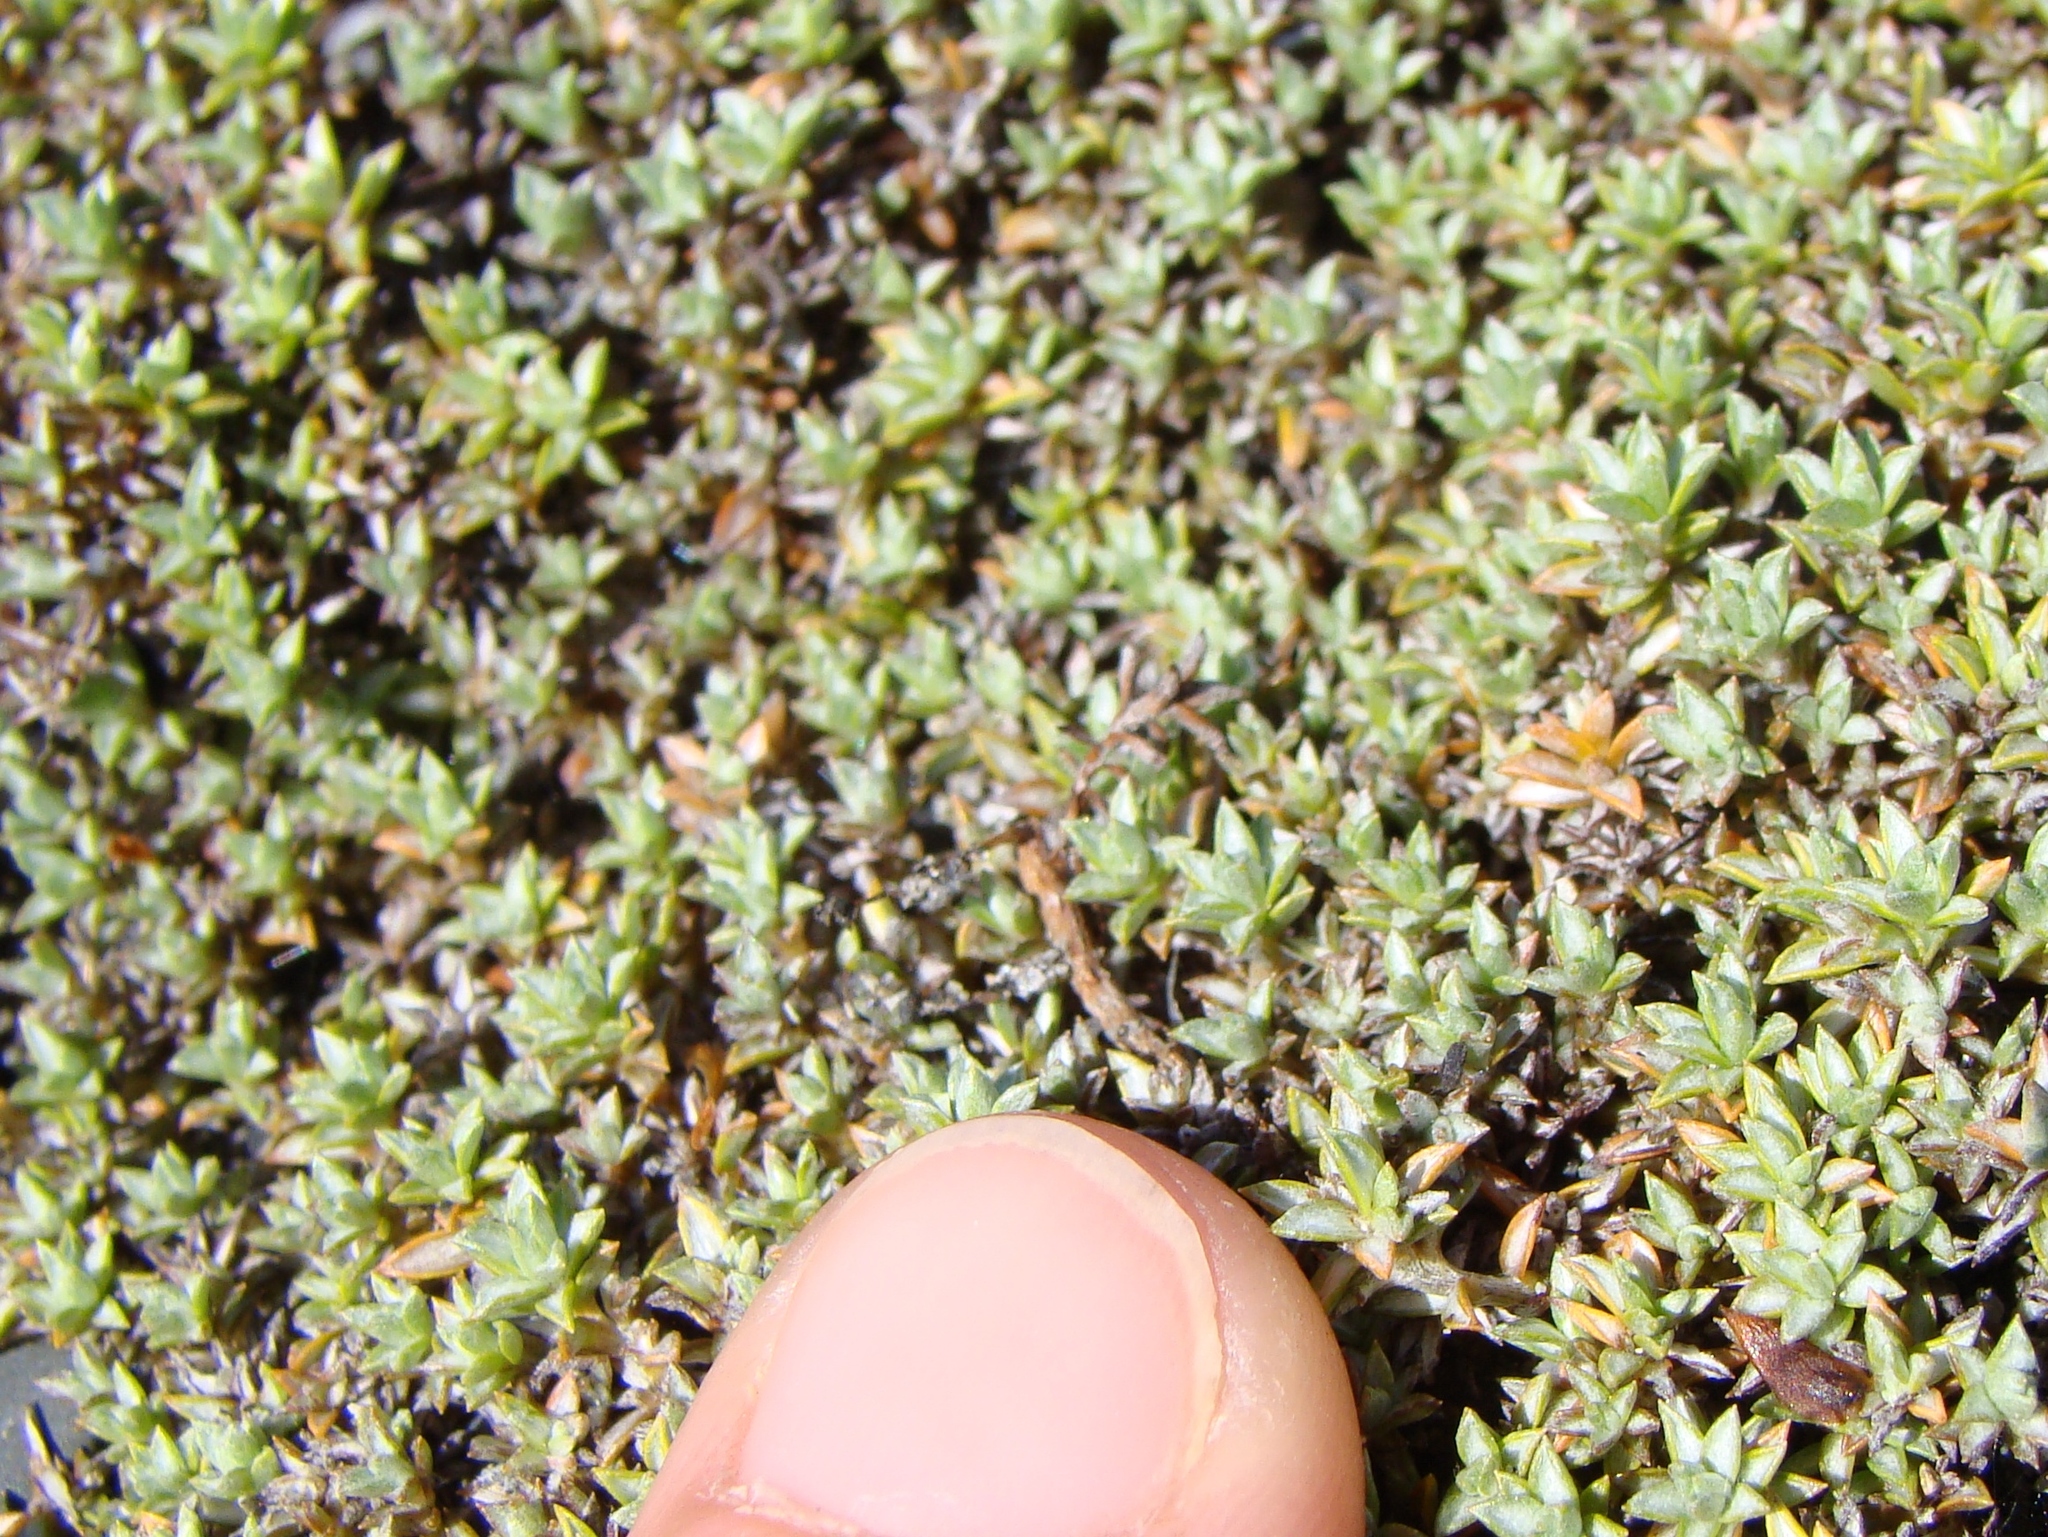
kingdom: Plantae
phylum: Tracheophyta
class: Magnoliopsida
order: Asterales
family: Asteraceae
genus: Raoulia
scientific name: Raoulia tenuicaulis
